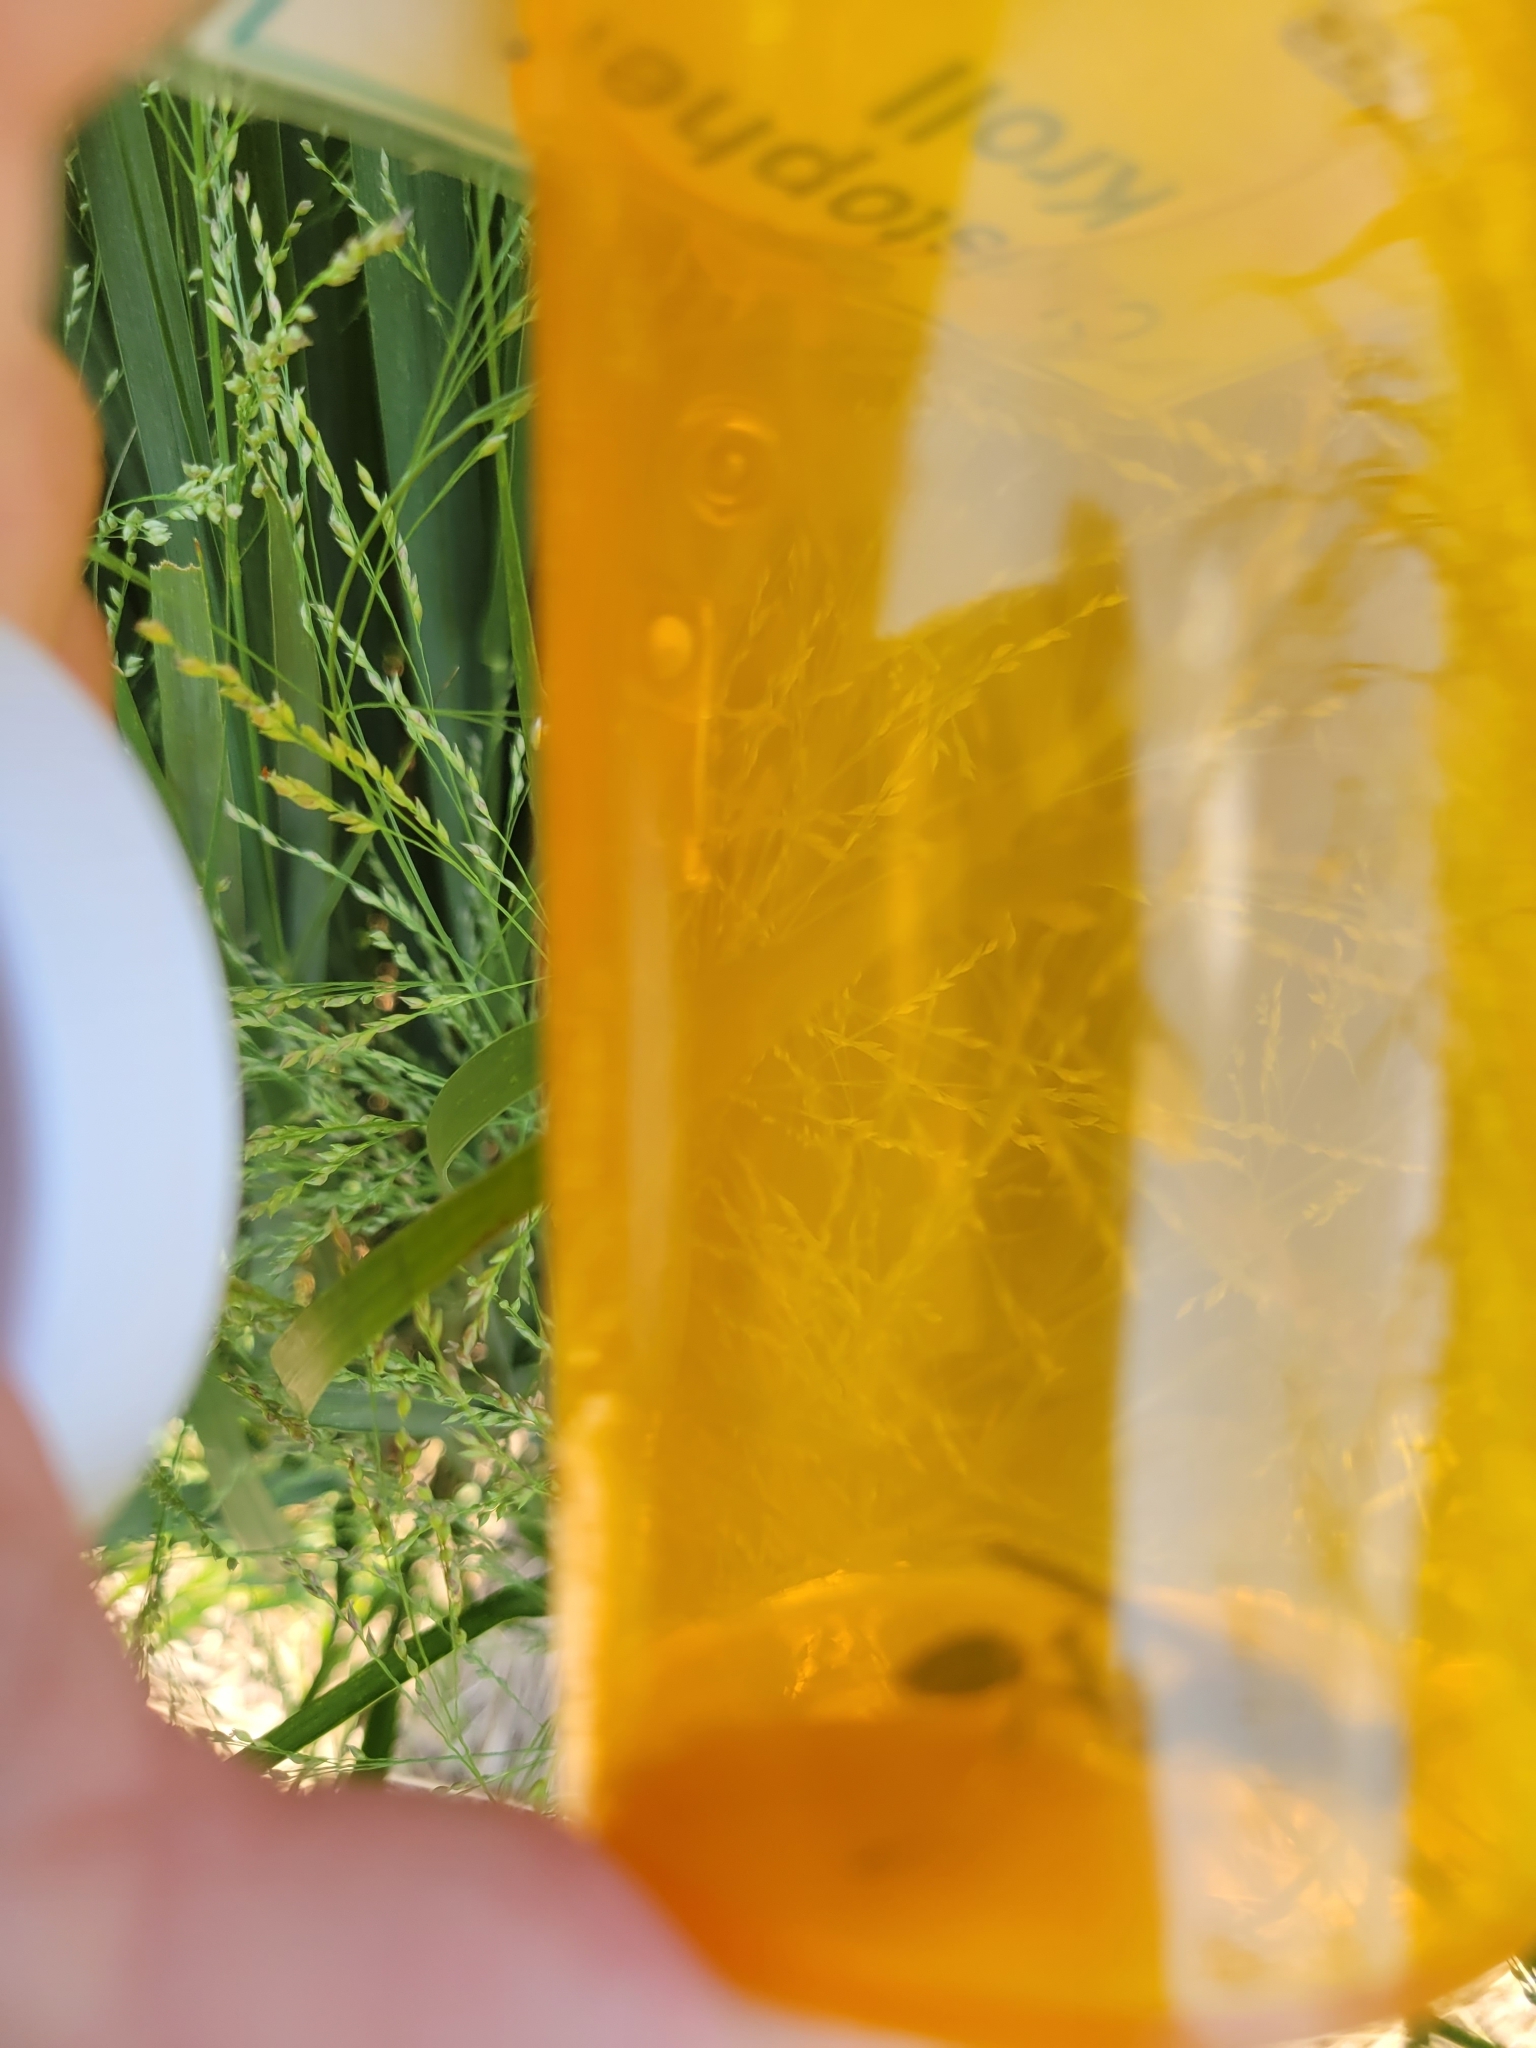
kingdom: Animalia
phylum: Arthropoda
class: Insecta
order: Hymenoptera
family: Sphecidae
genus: Sceliphron
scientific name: Sceliphron caementarium
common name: Mud dauber
